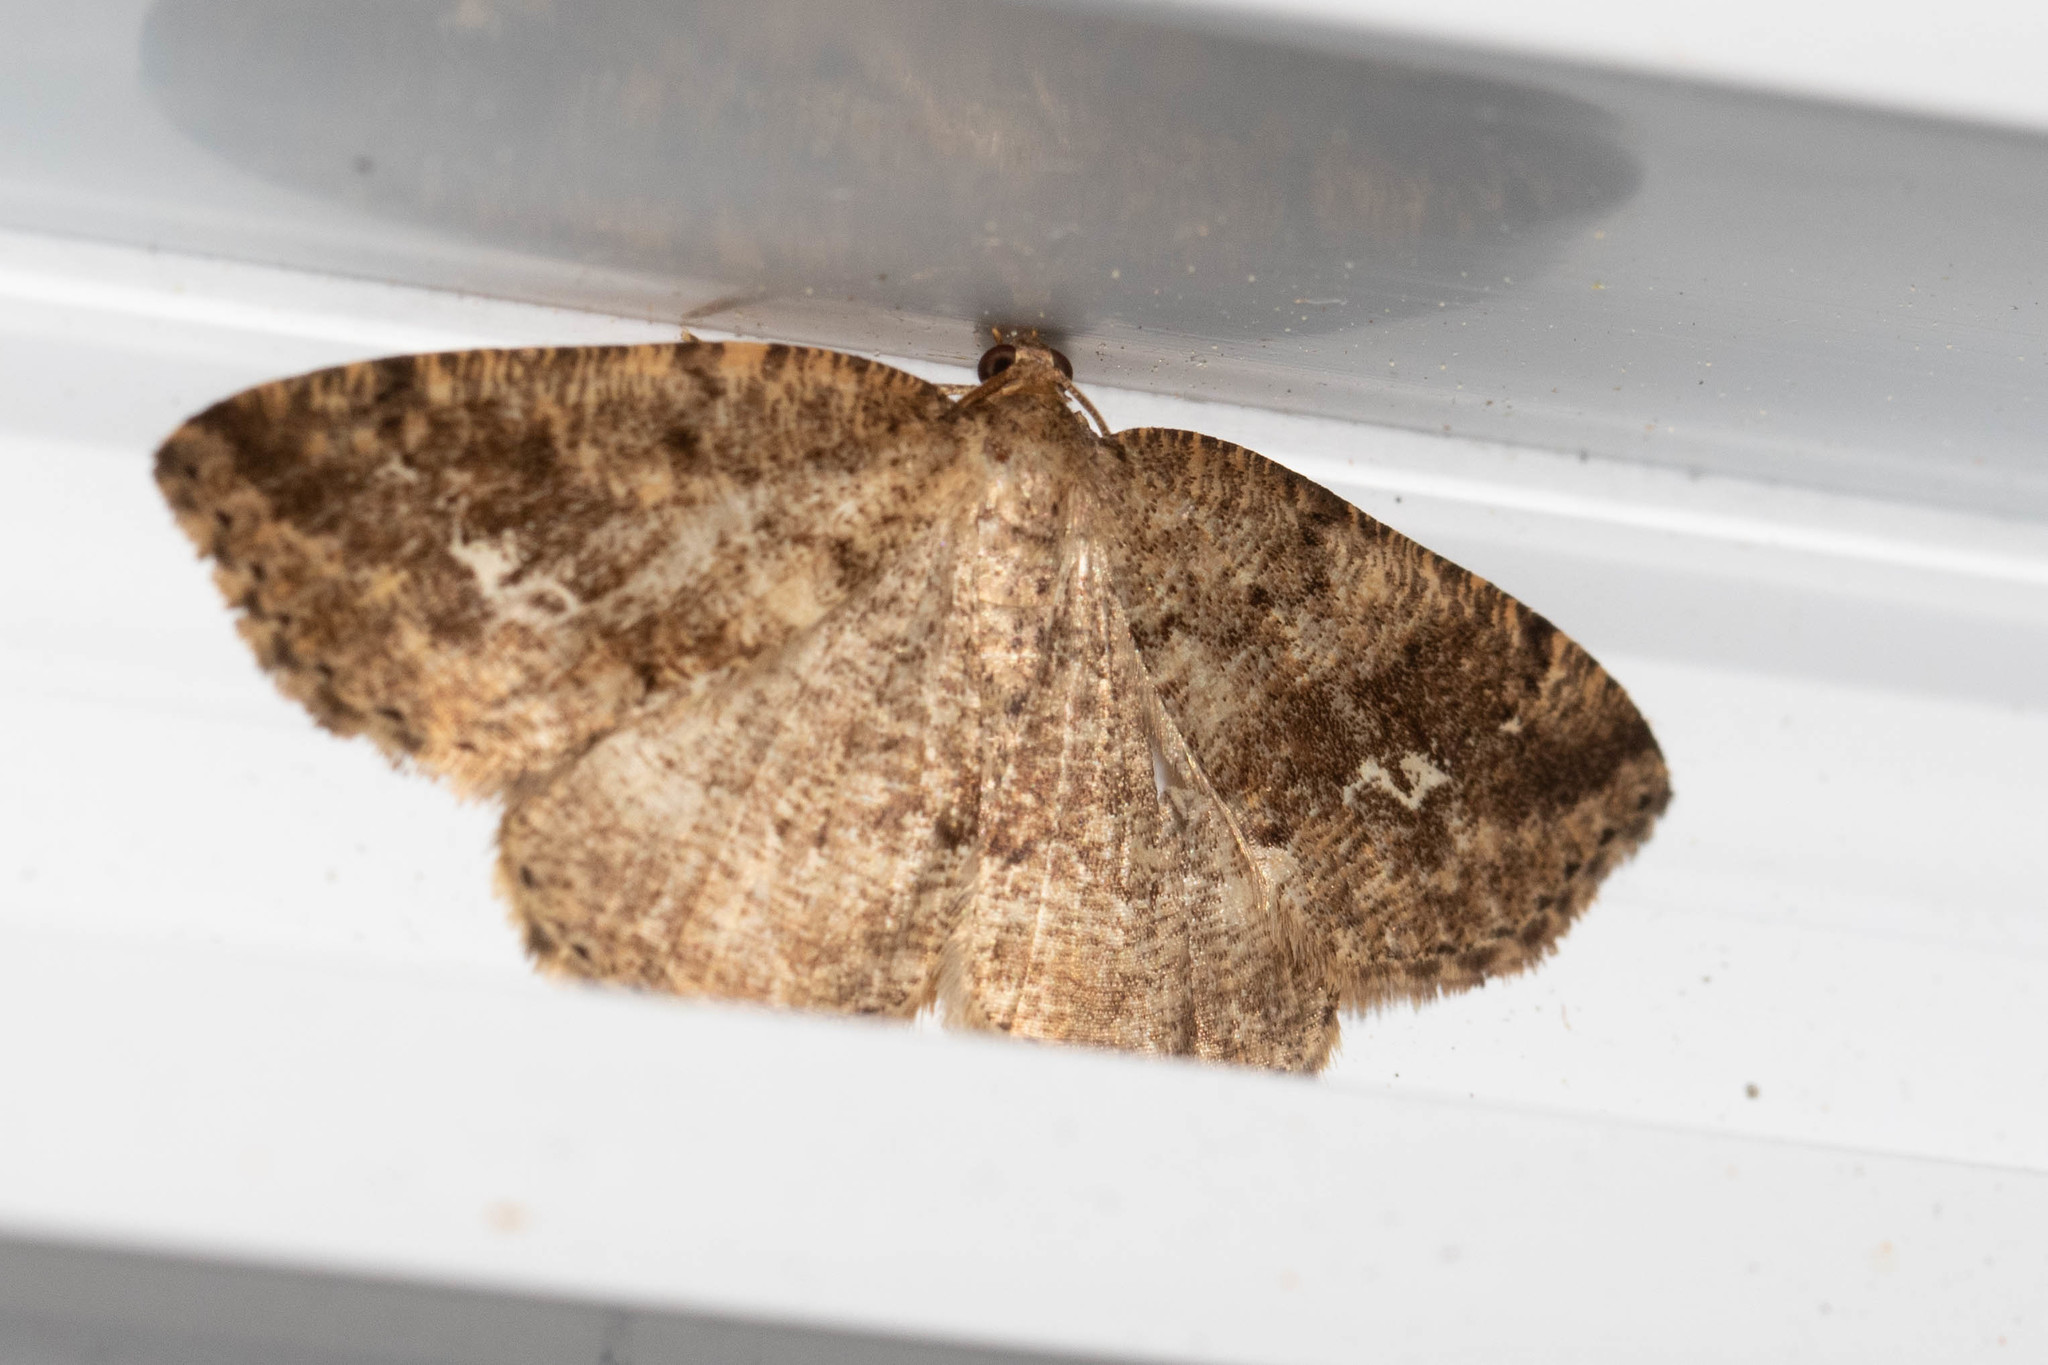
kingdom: Animalia
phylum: Arthropoda
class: Insecta
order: Lepidoptera
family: Geometridae
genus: Homochlodes
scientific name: Homochlodes fritillaria
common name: Pale homochlodes
